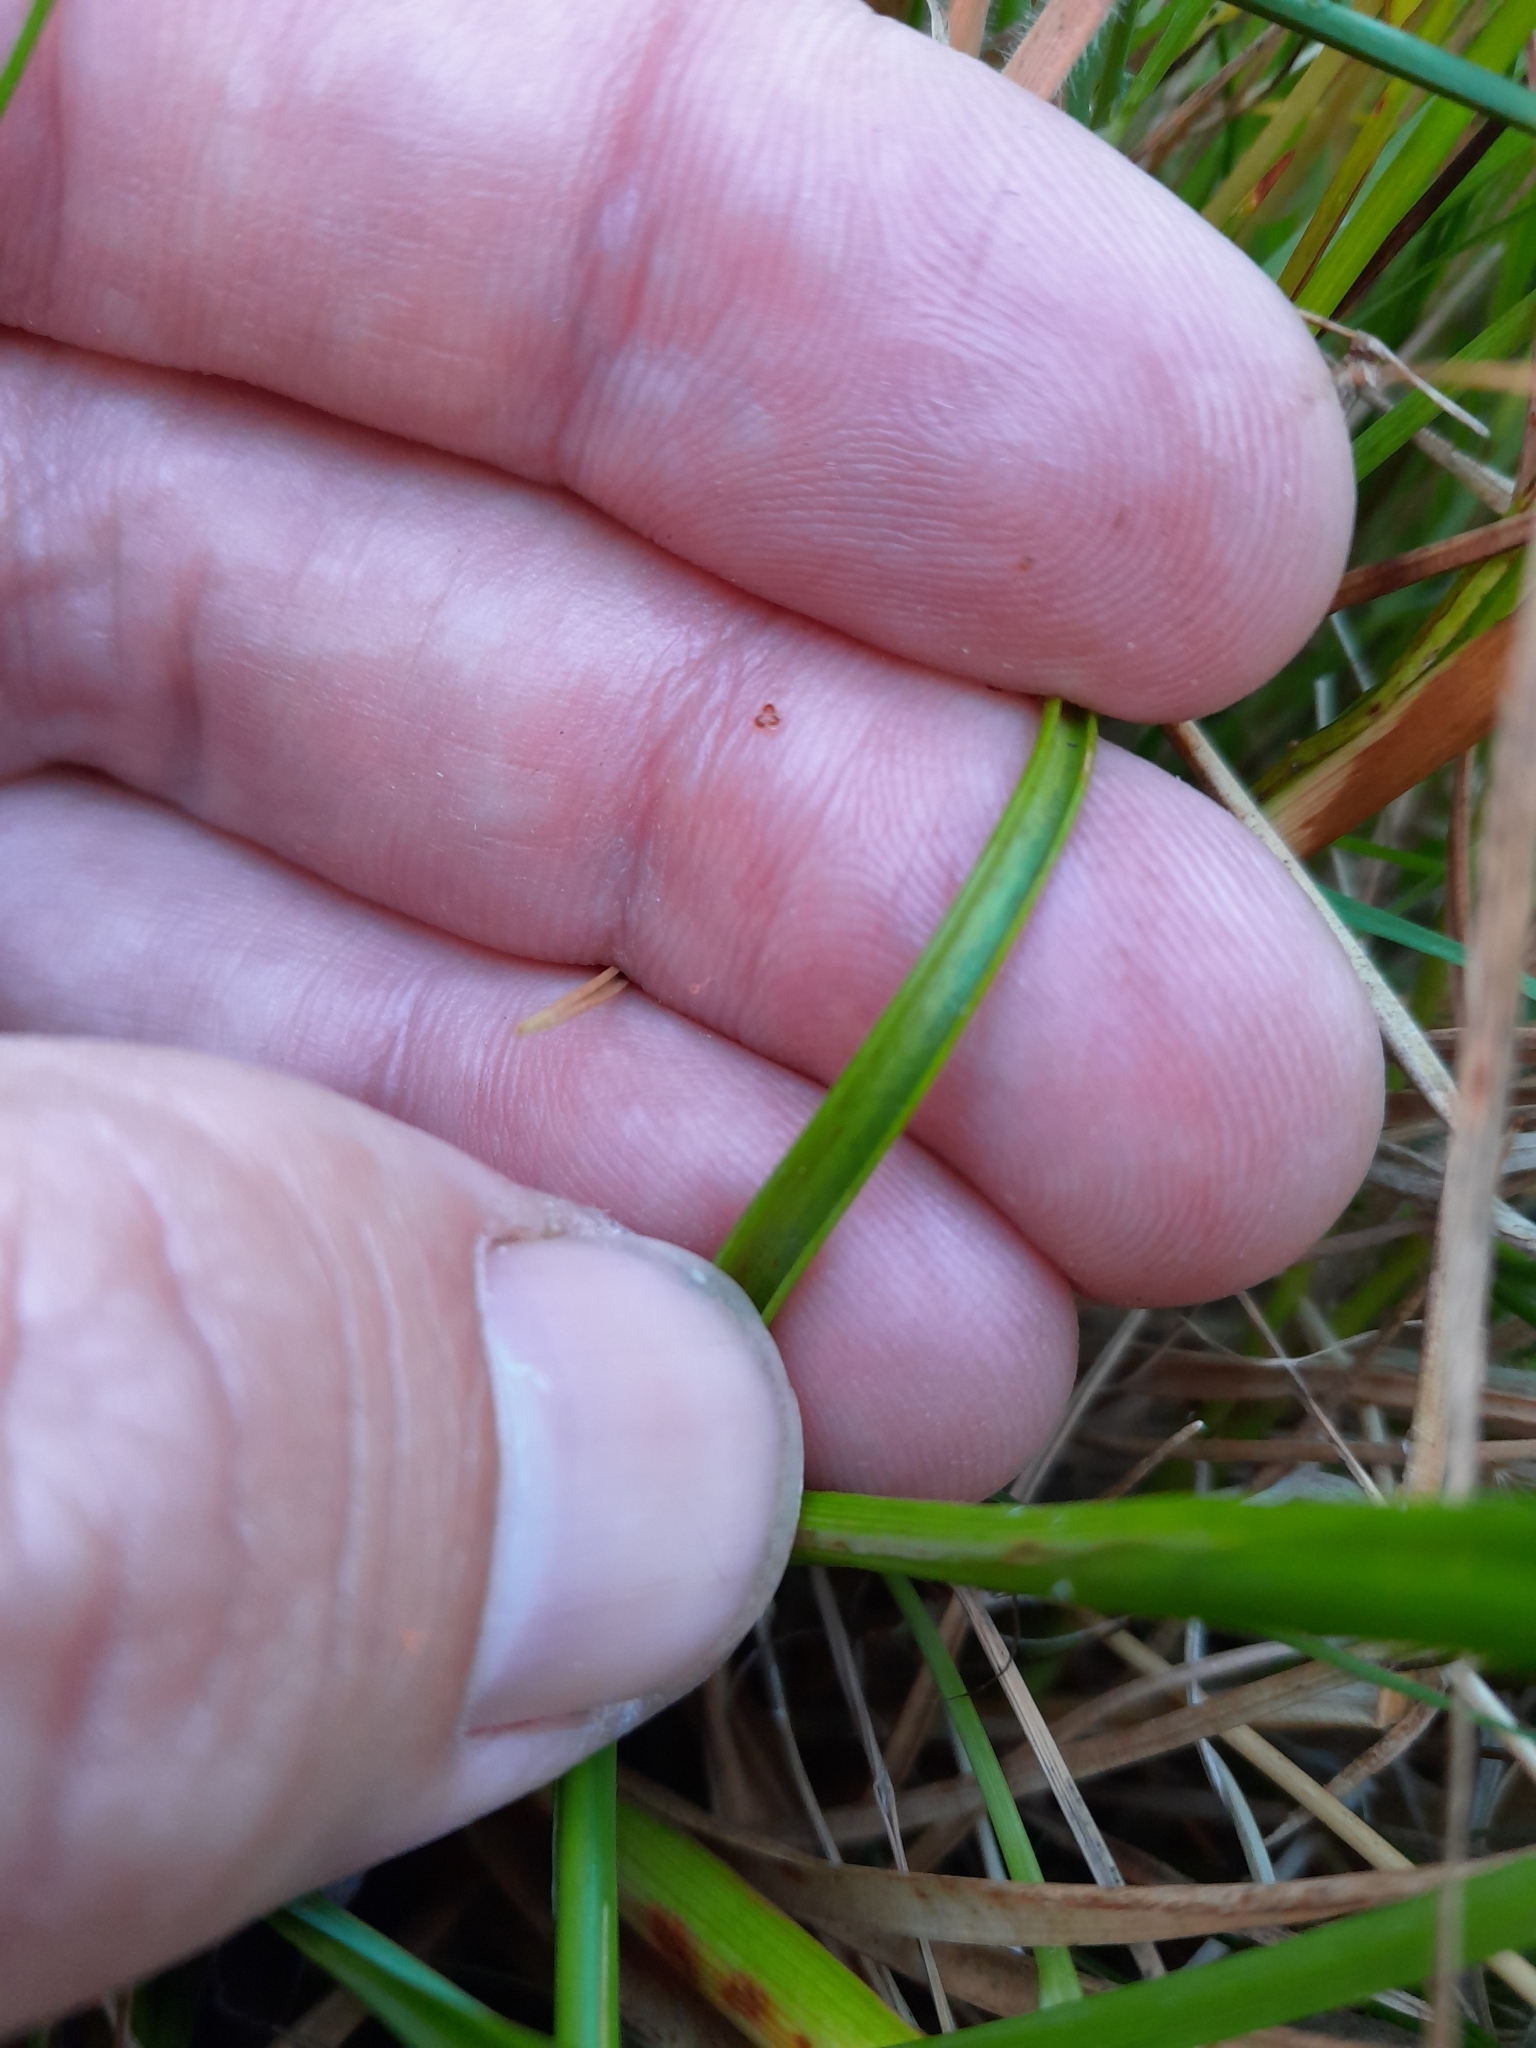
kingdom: Plantae
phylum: Tracheophyta
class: Liliopsida
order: Poales
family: Juncaceae
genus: Juncus
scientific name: Juncus caespiticius
